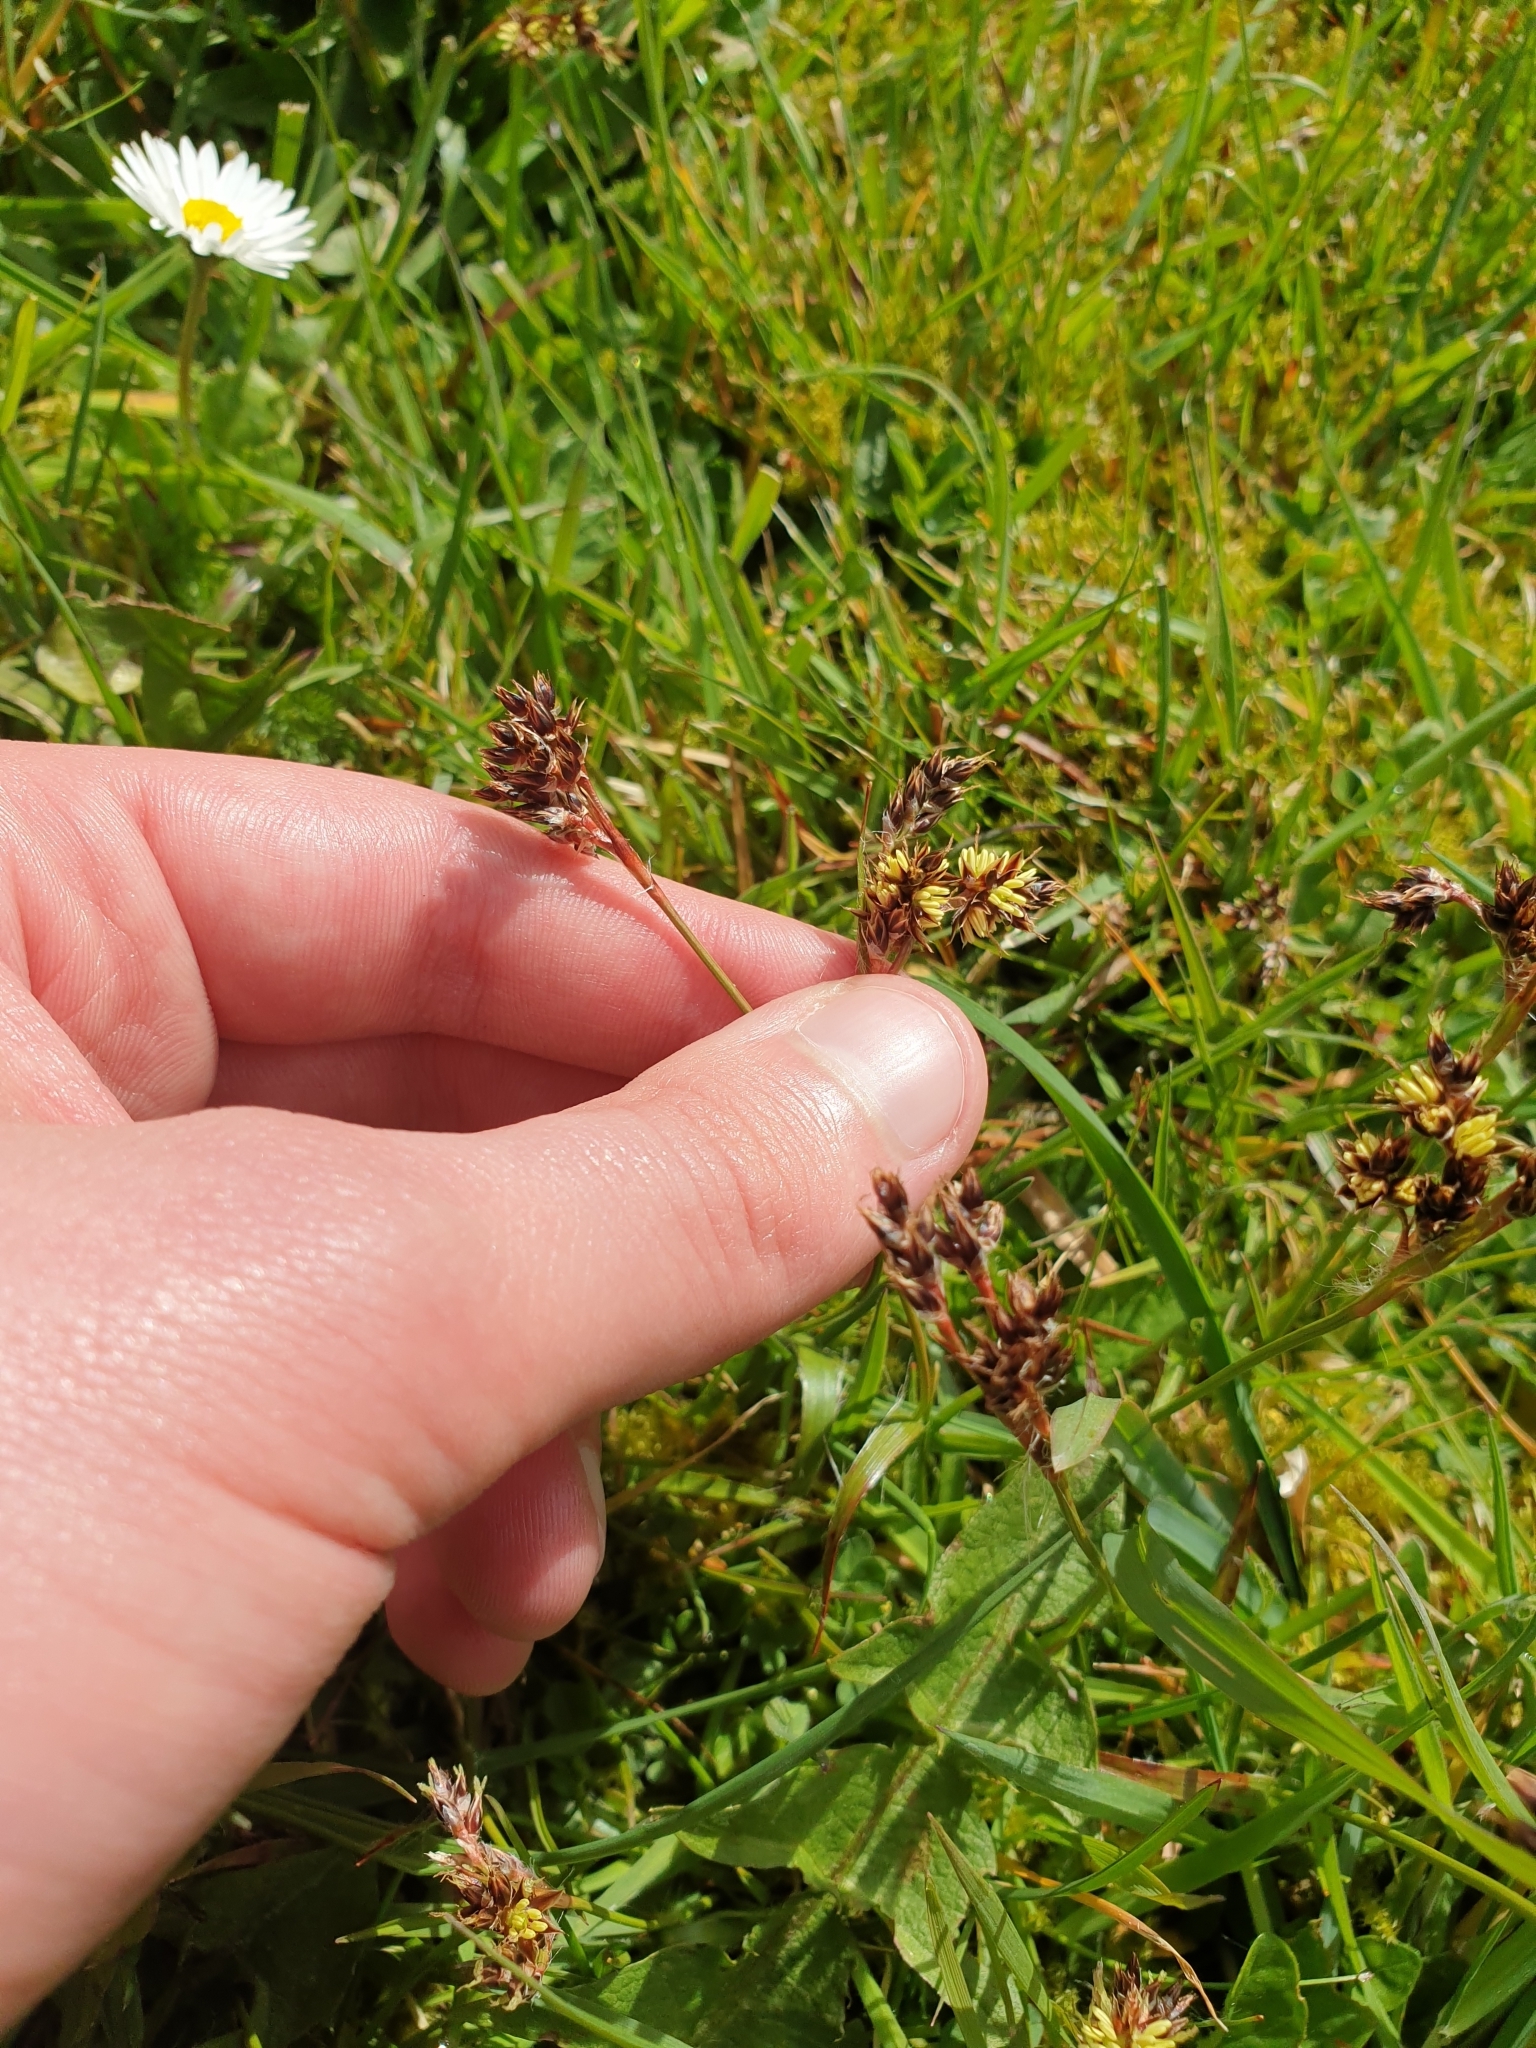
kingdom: Plantae
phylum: Tracheophyta
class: Liliopsida
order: Poales
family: Juncaceae
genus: Luzula
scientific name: Luzula campestris
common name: Field wood-rush
